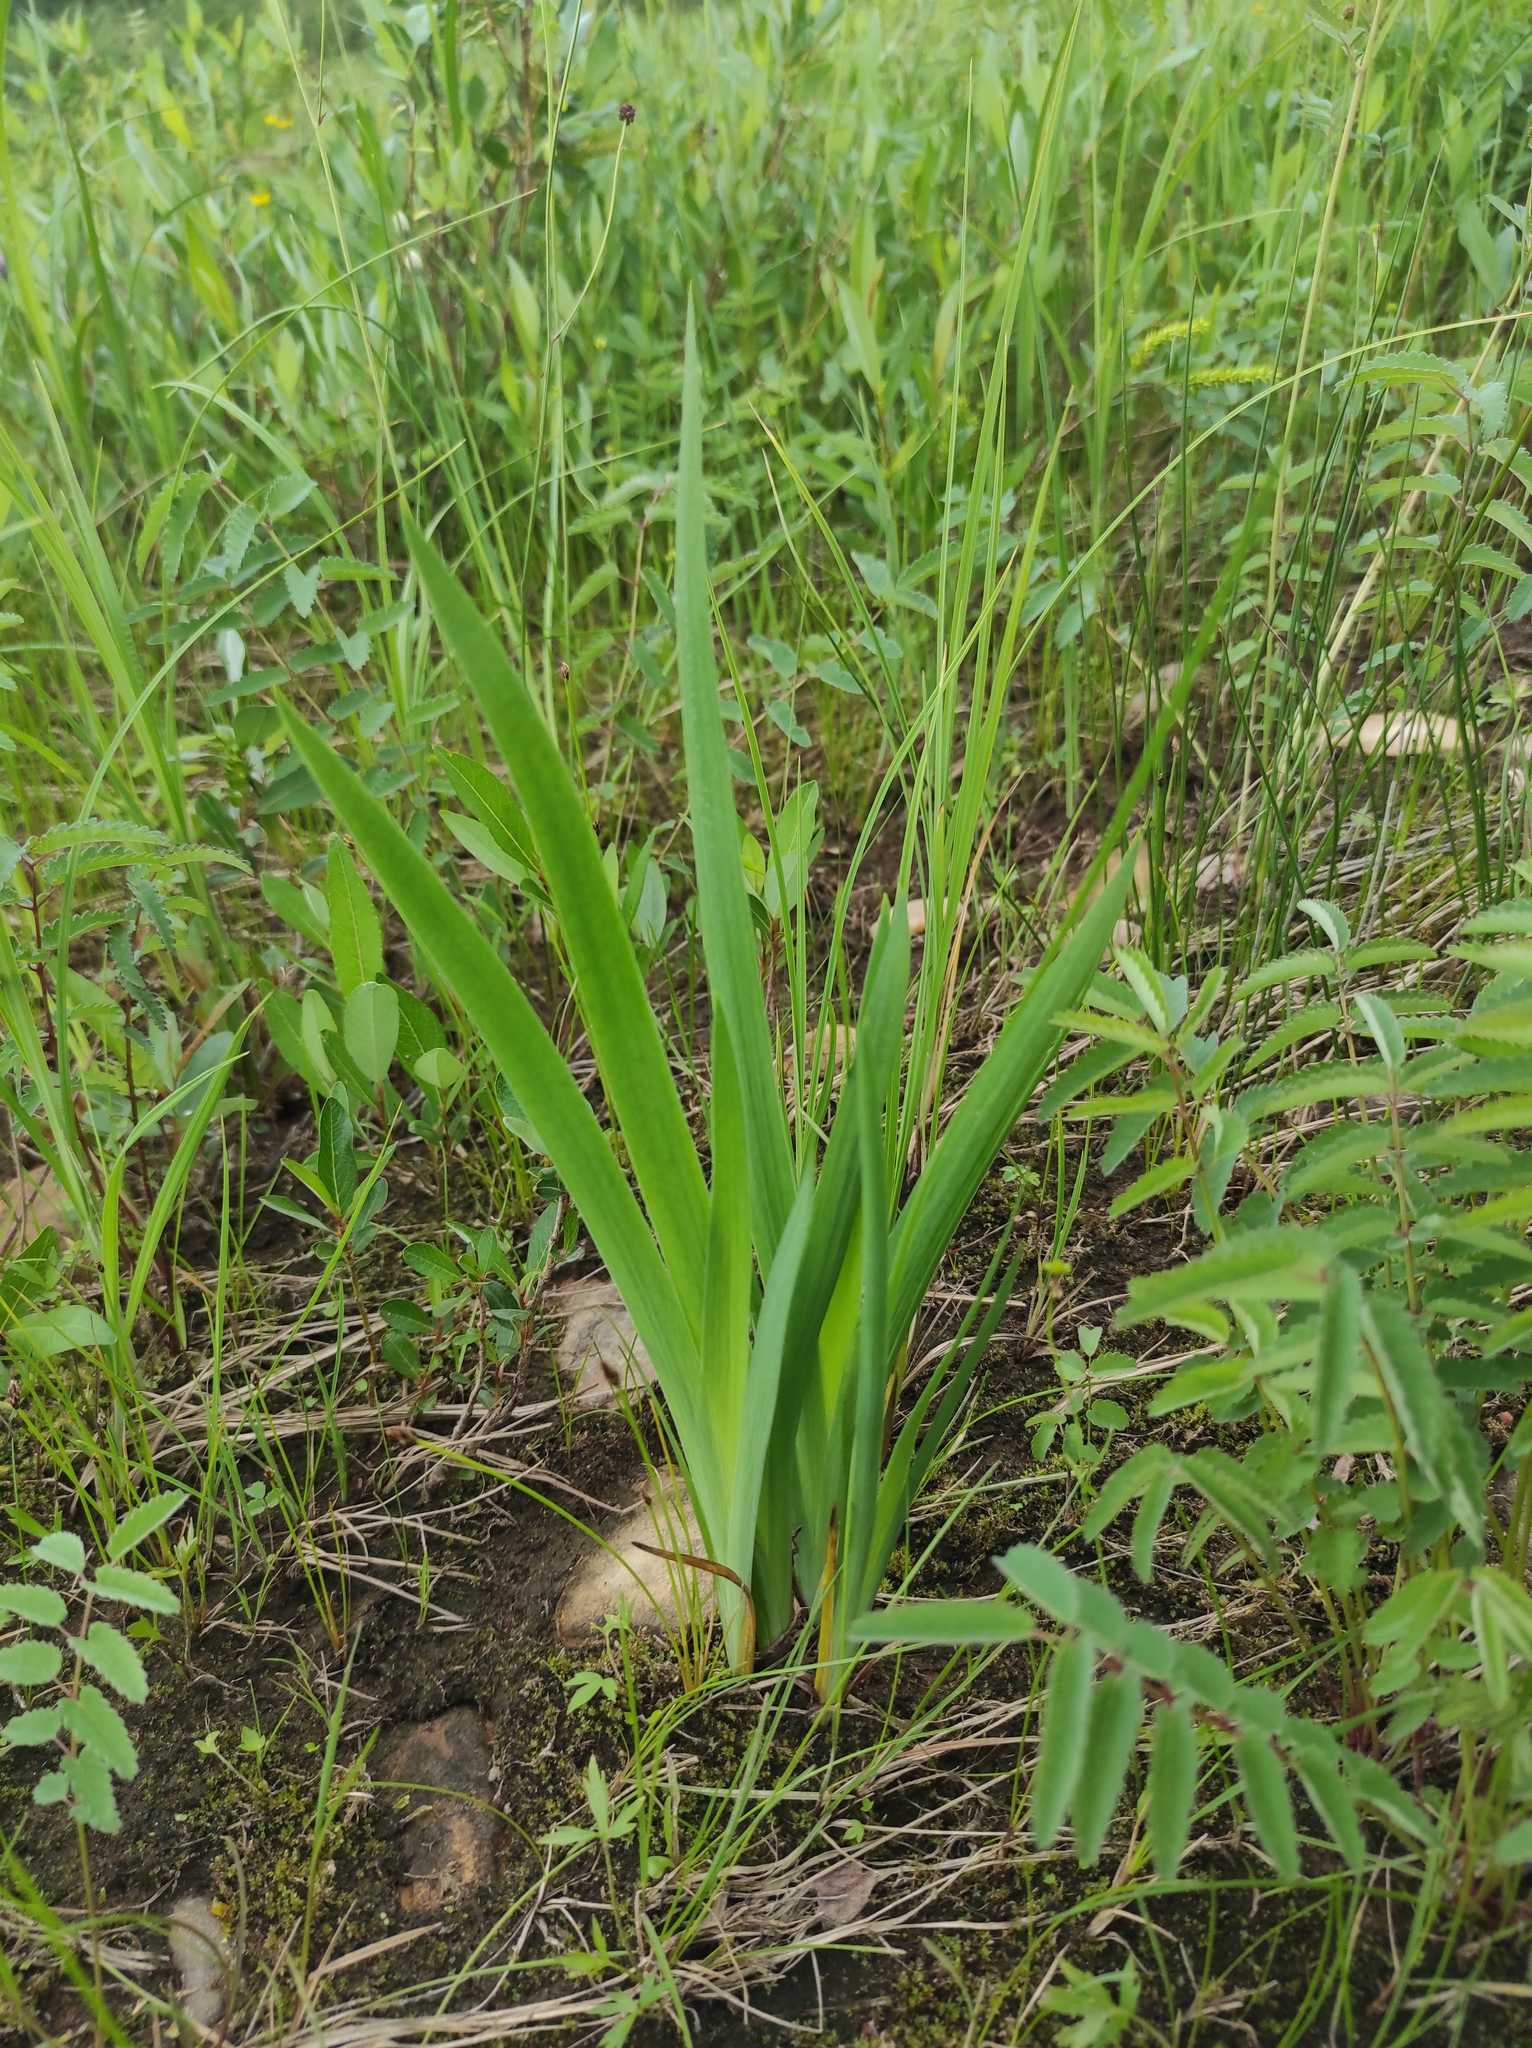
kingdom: Plantae
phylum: Tracheophyta
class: Liliopsida
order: Asparagales
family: Iridaceae
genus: Iris
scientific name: Iris setosa
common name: Arctic blue flag
